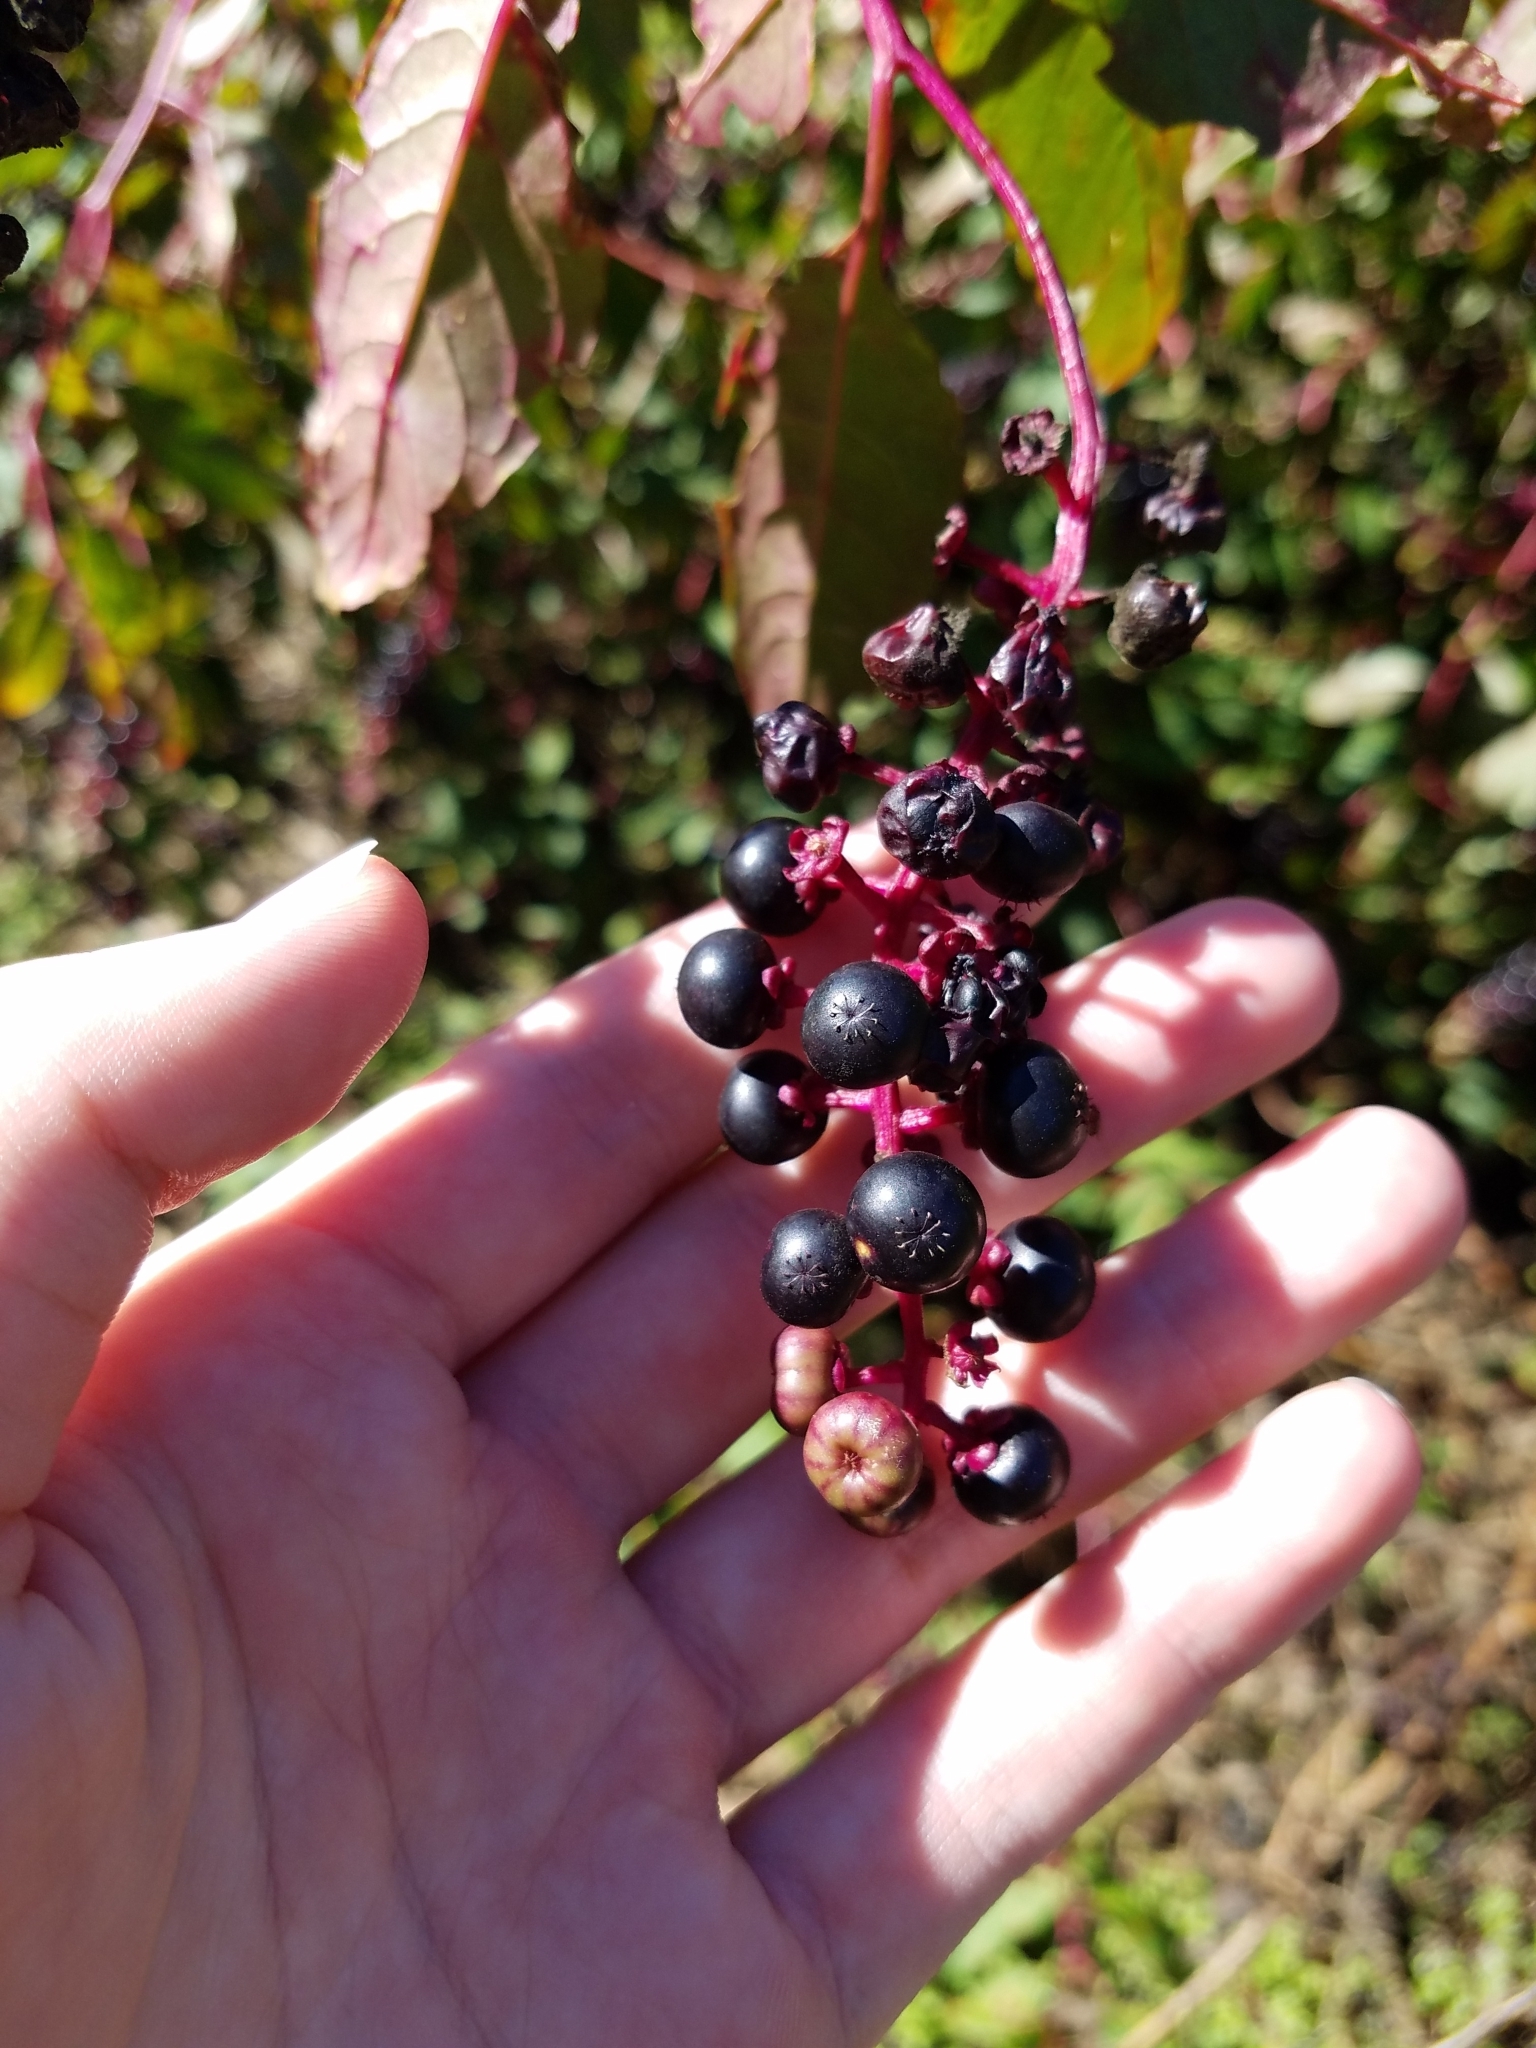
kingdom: Plantae
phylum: Tracheophyta
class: Magnoliopsida
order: Caryophyllales
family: Phytolaccaceae
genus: Phytolacca
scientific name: Phytolacca americana
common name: American pokeweed
